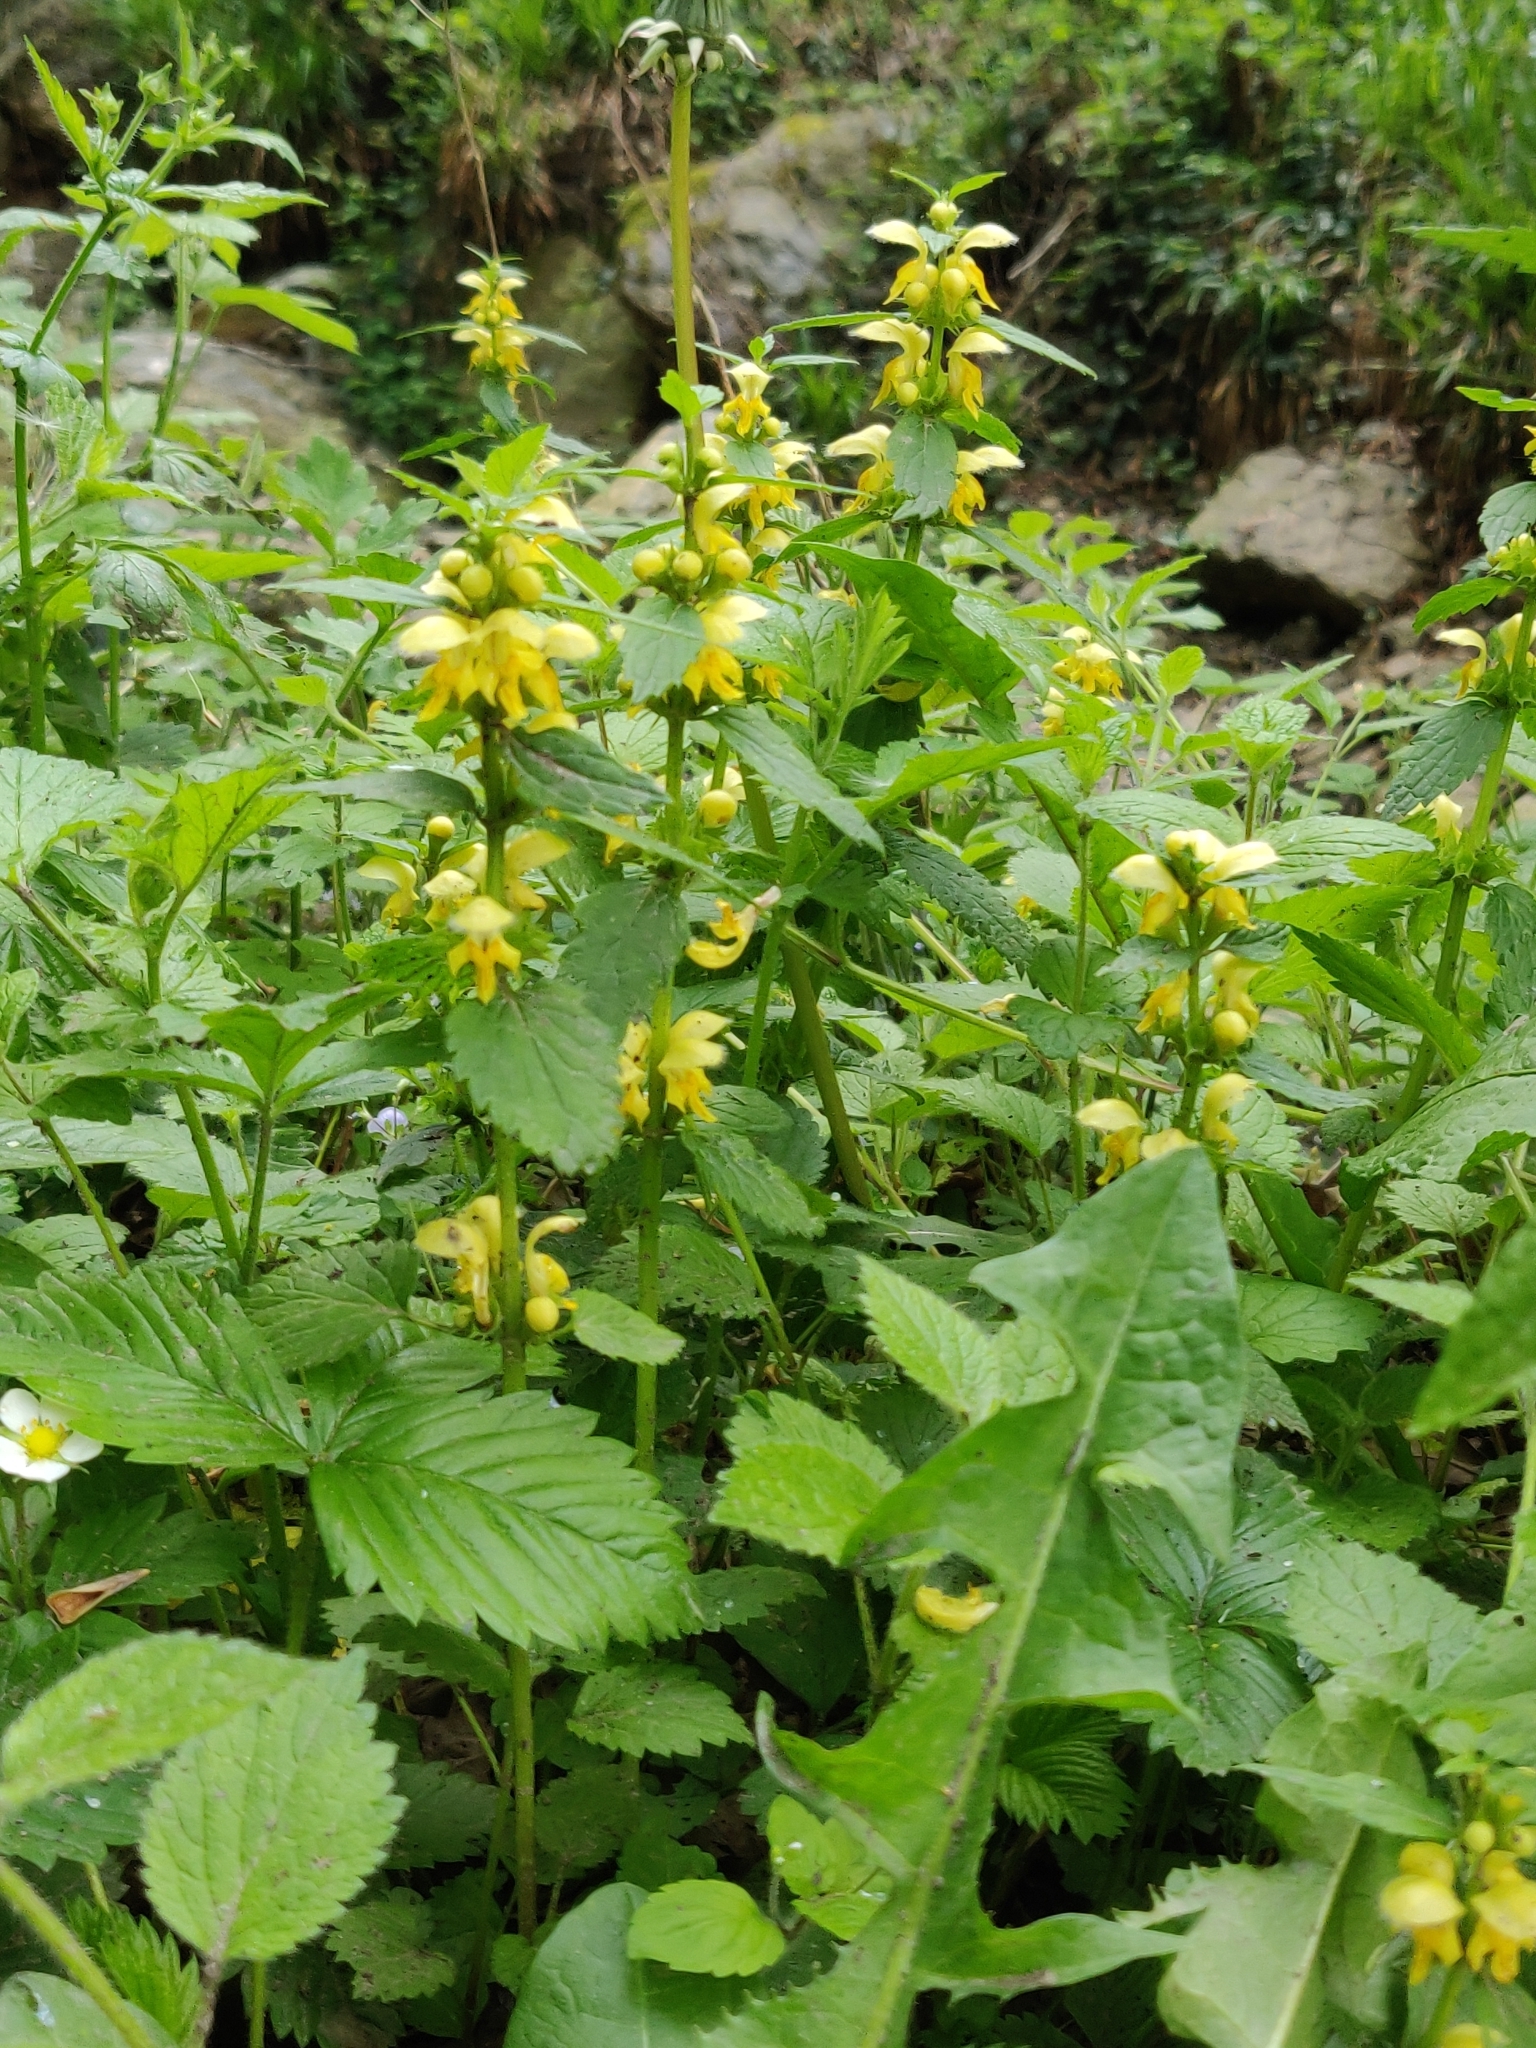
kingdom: Plantae
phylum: Tracheophyta
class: Magnoliopsida
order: Lamiales
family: Lamiaceae
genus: Lamium
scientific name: Lamium galeobdolon
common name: Yellow archangel
